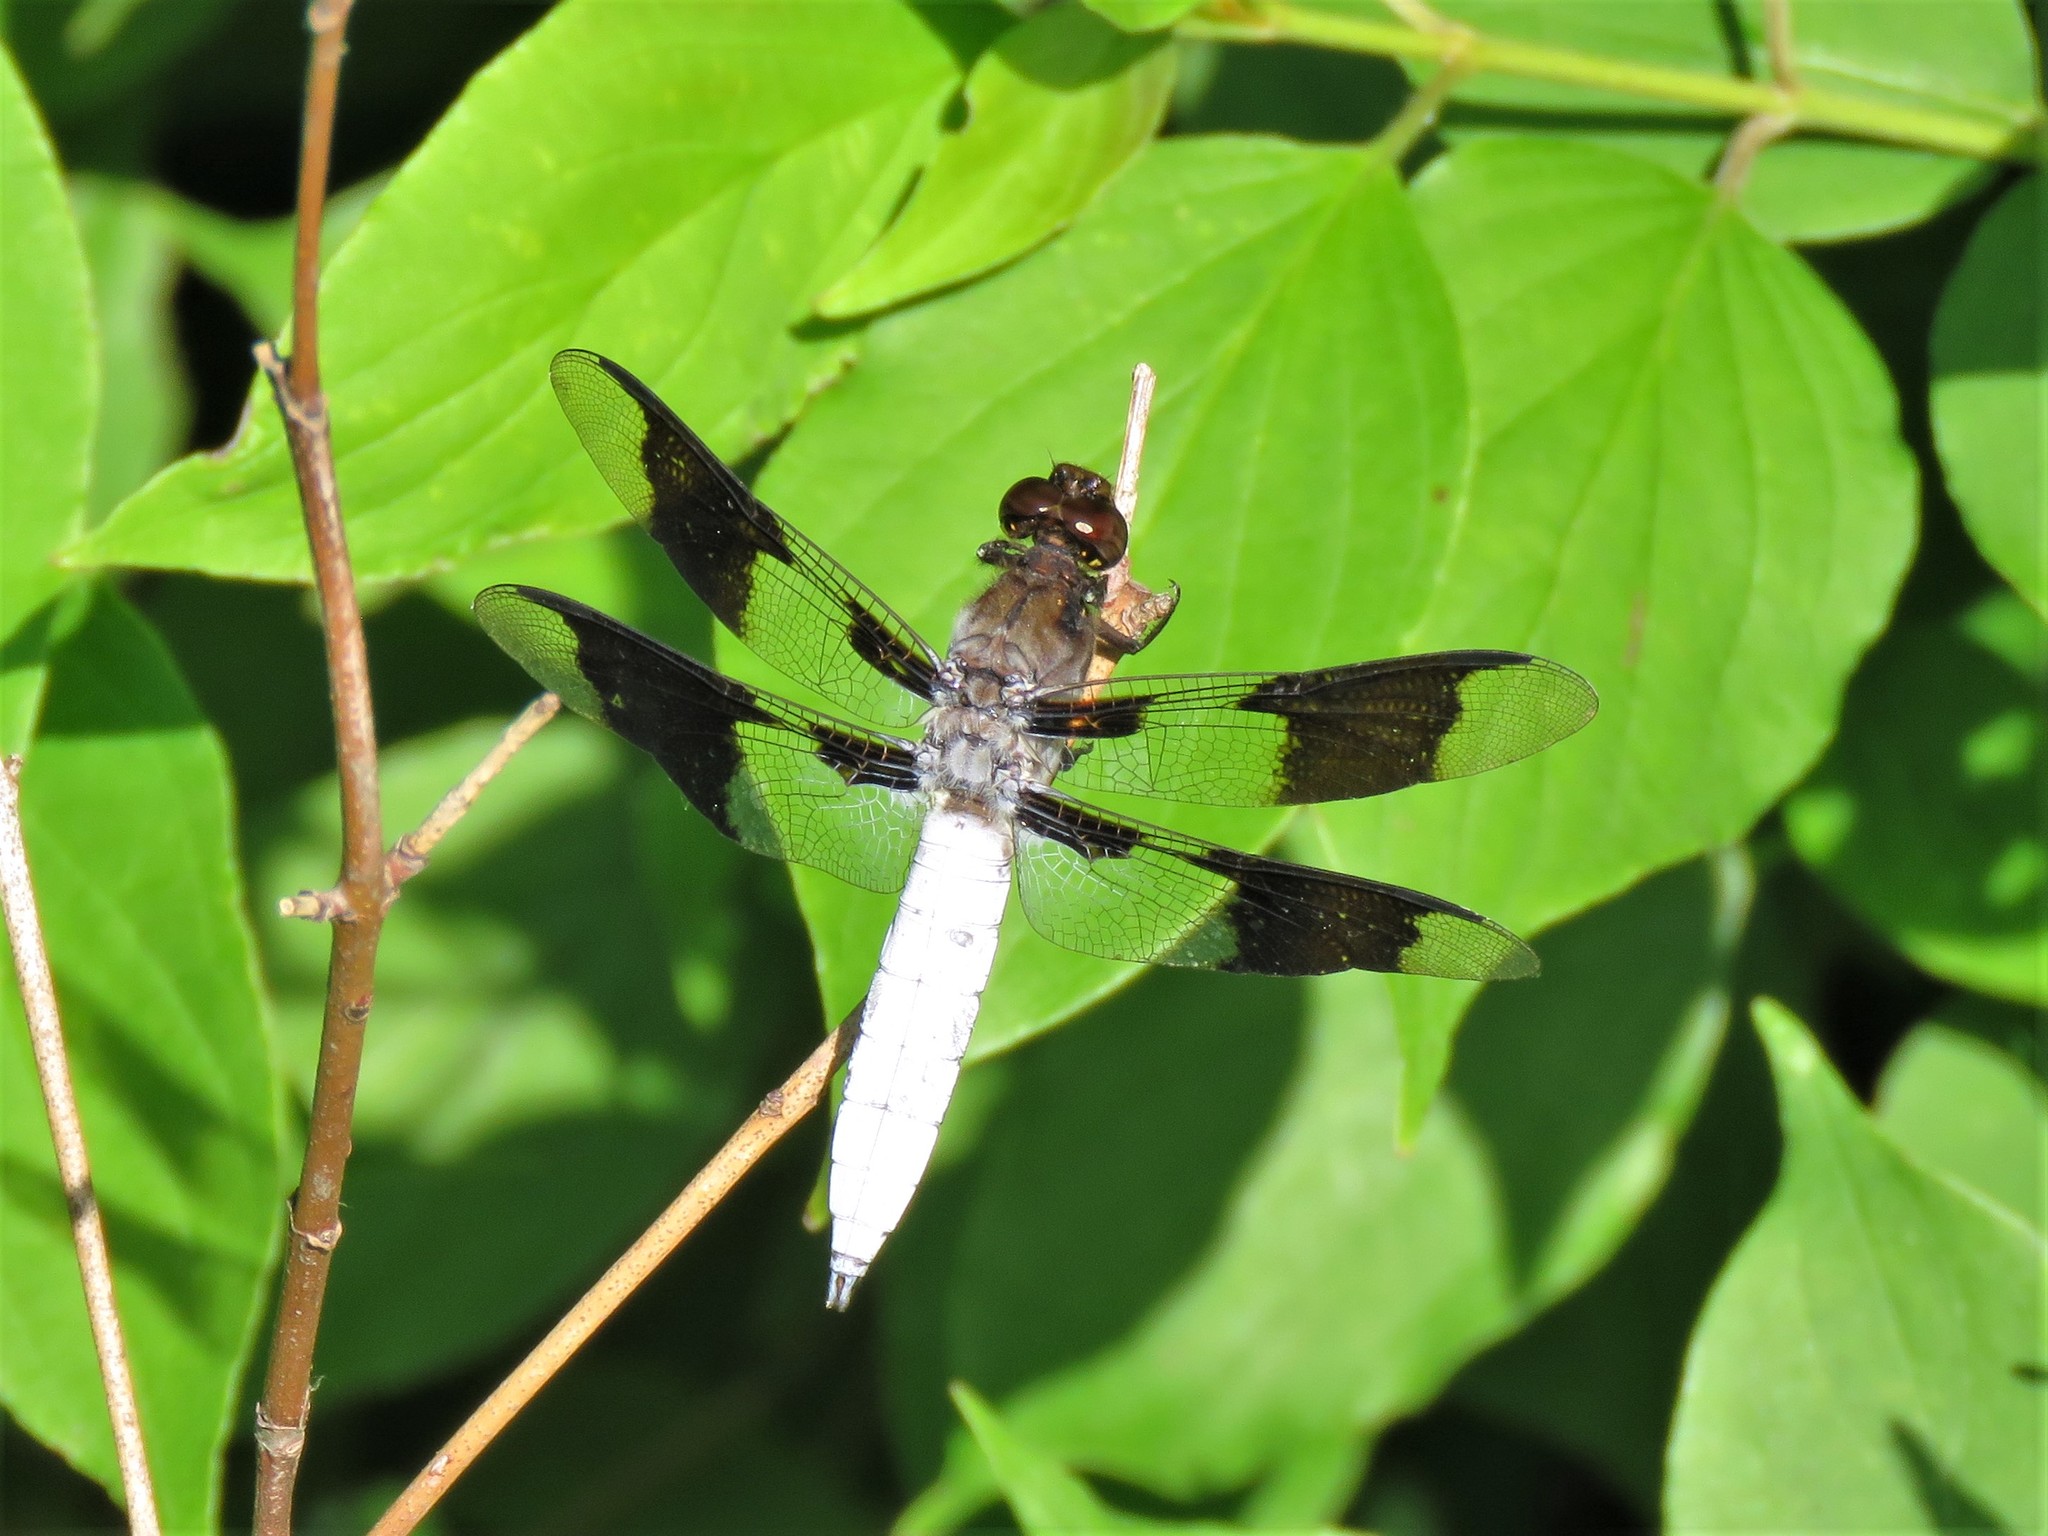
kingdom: Animalia
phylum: Arthropoda
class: Insecta
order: Odonata
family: Libellulidae
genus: Plathemis
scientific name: Plathemis lydia
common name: Common whitetail
